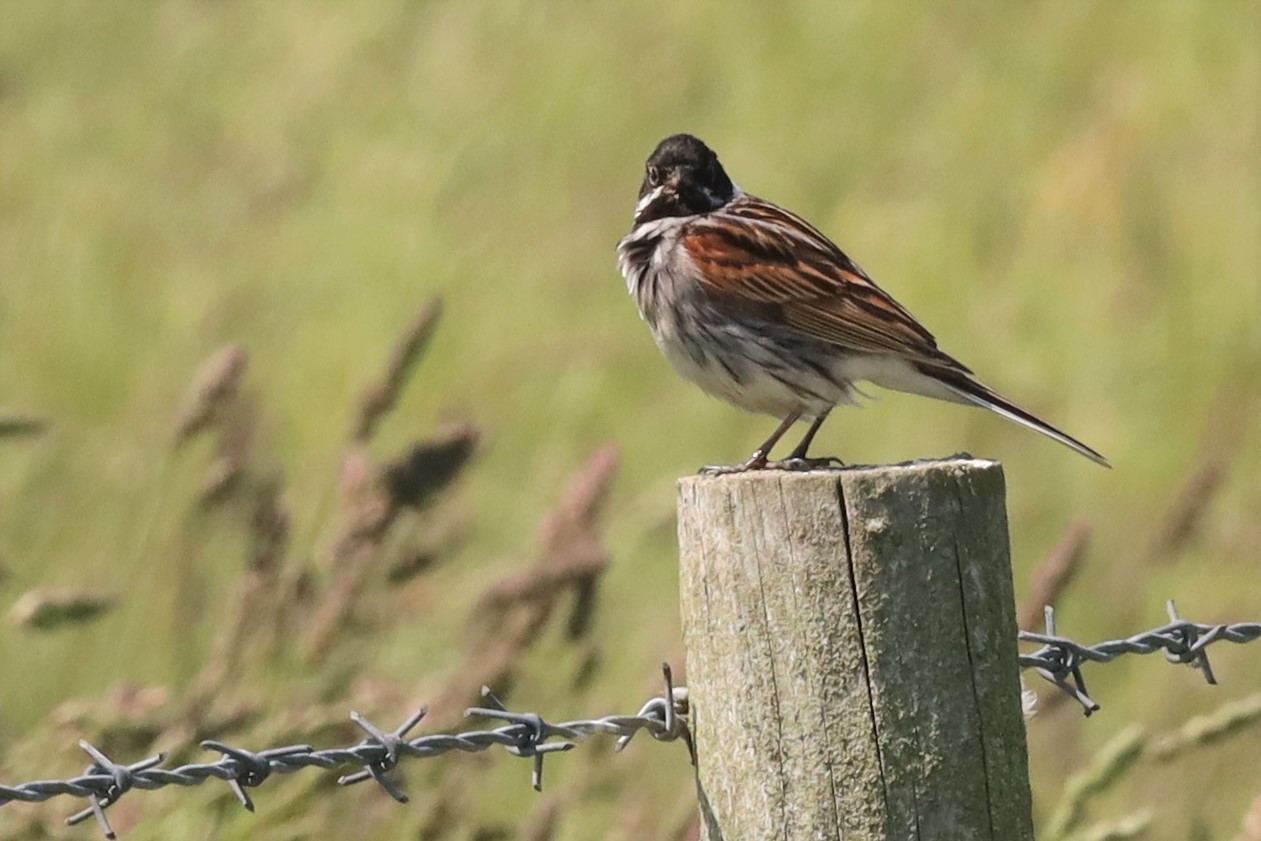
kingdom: Animalia
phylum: Chordata
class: Aves
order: Passeriformes
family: Emberizidae
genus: Emberiza
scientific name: Emberiza schoeniclus
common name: Reed bunting
